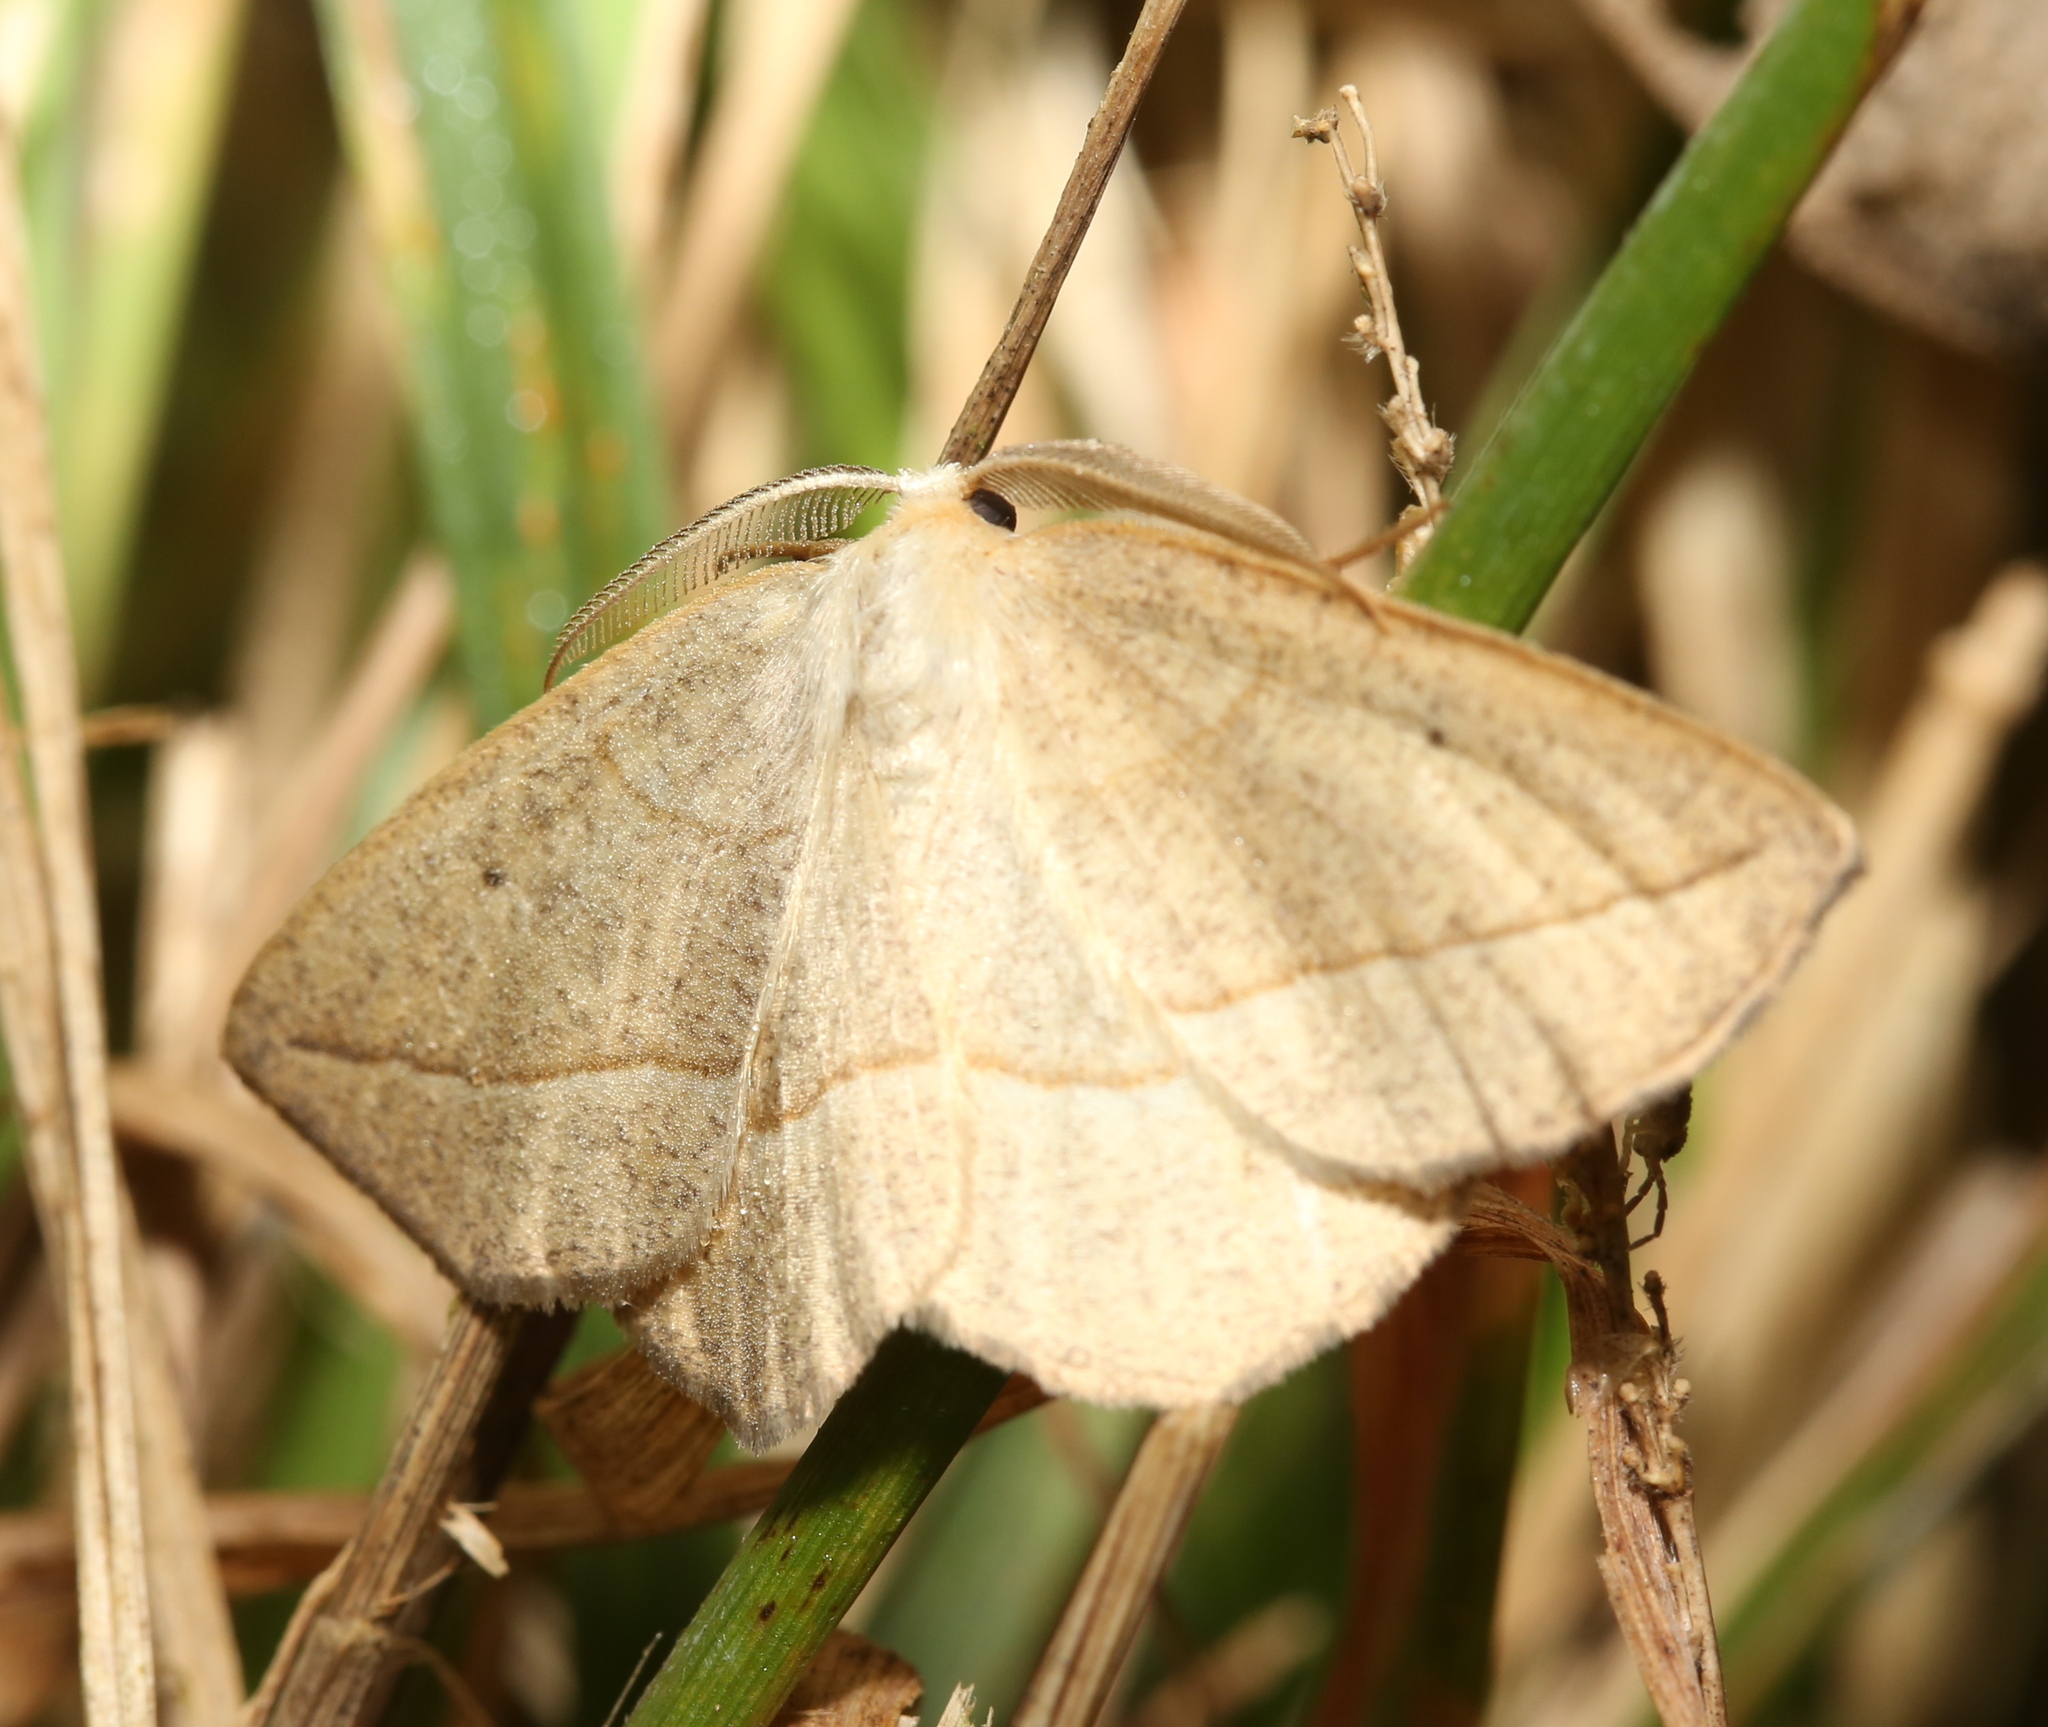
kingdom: Animalia
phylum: Arthropoda
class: Insecta
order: Lepidoptera
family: Geometridae
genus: Eusarca
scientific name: Eusarca confusaria
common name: Confused eusarca
